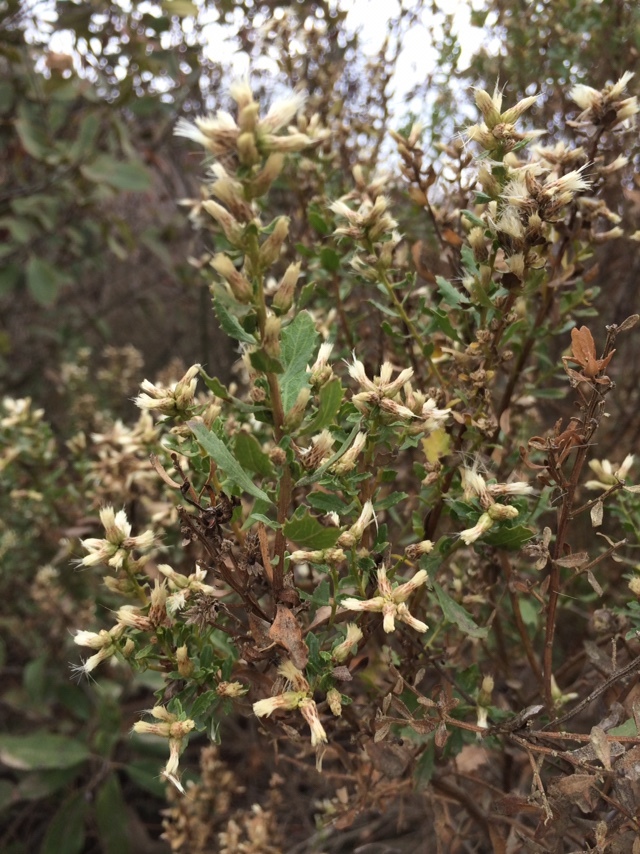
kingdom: Plantae
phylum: Tracheophyta
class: Magnoliopsida
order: Asterales
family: Asteraceae
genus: Baccharis
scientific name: Baccharis pilularis
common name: Coyotebrush
